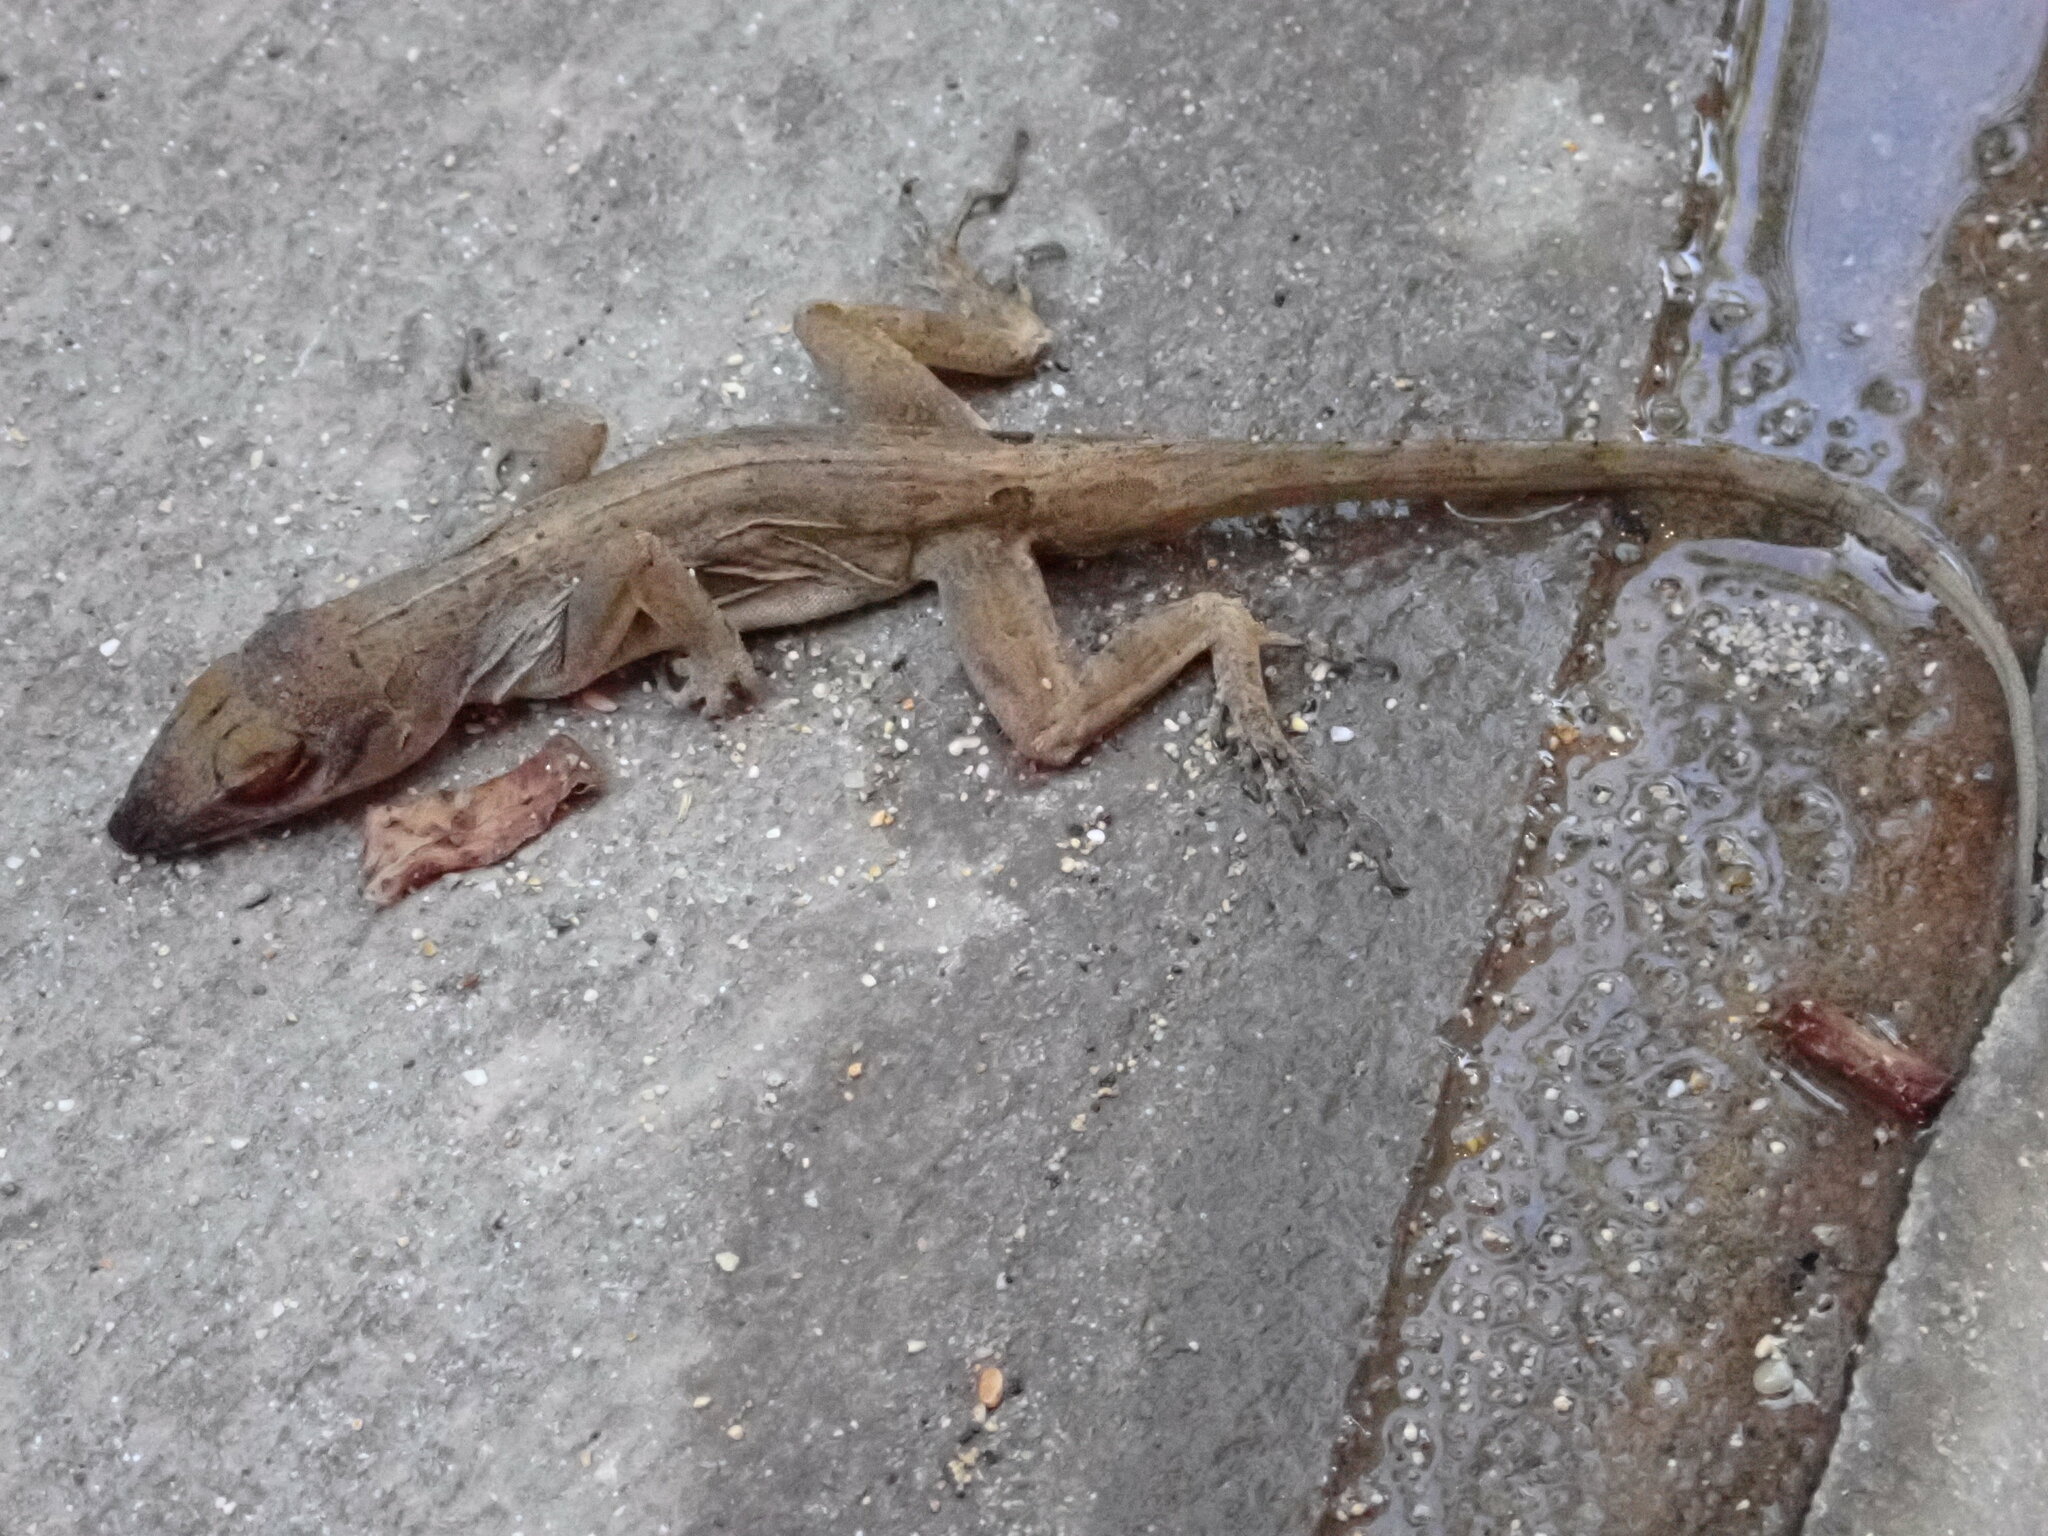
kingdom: Animalia
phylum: Chordata
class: Squamata
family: Dactyloidae
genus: Anolis
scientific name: Anolis sagrei
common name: Brown anole
